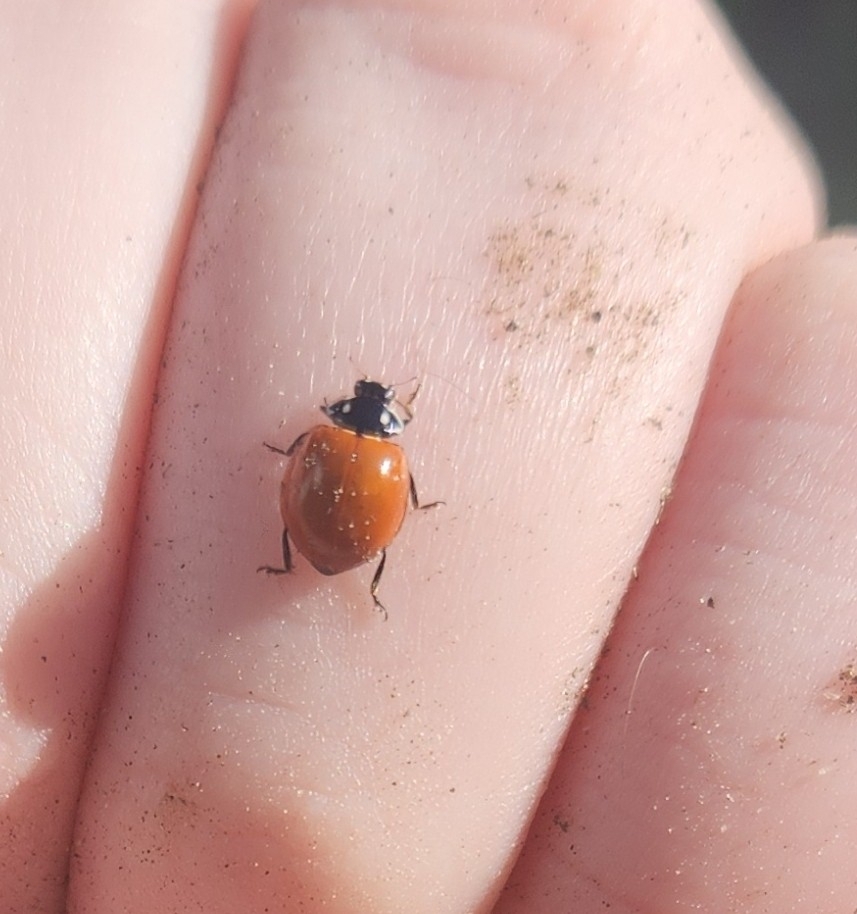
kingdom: Animalia
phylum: Arthropoda
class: Insecta
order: Coleoptera
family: Coccinellidae
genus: Cycloneda
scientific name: Cycloneda sanguinea
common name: Ladybird beetle
